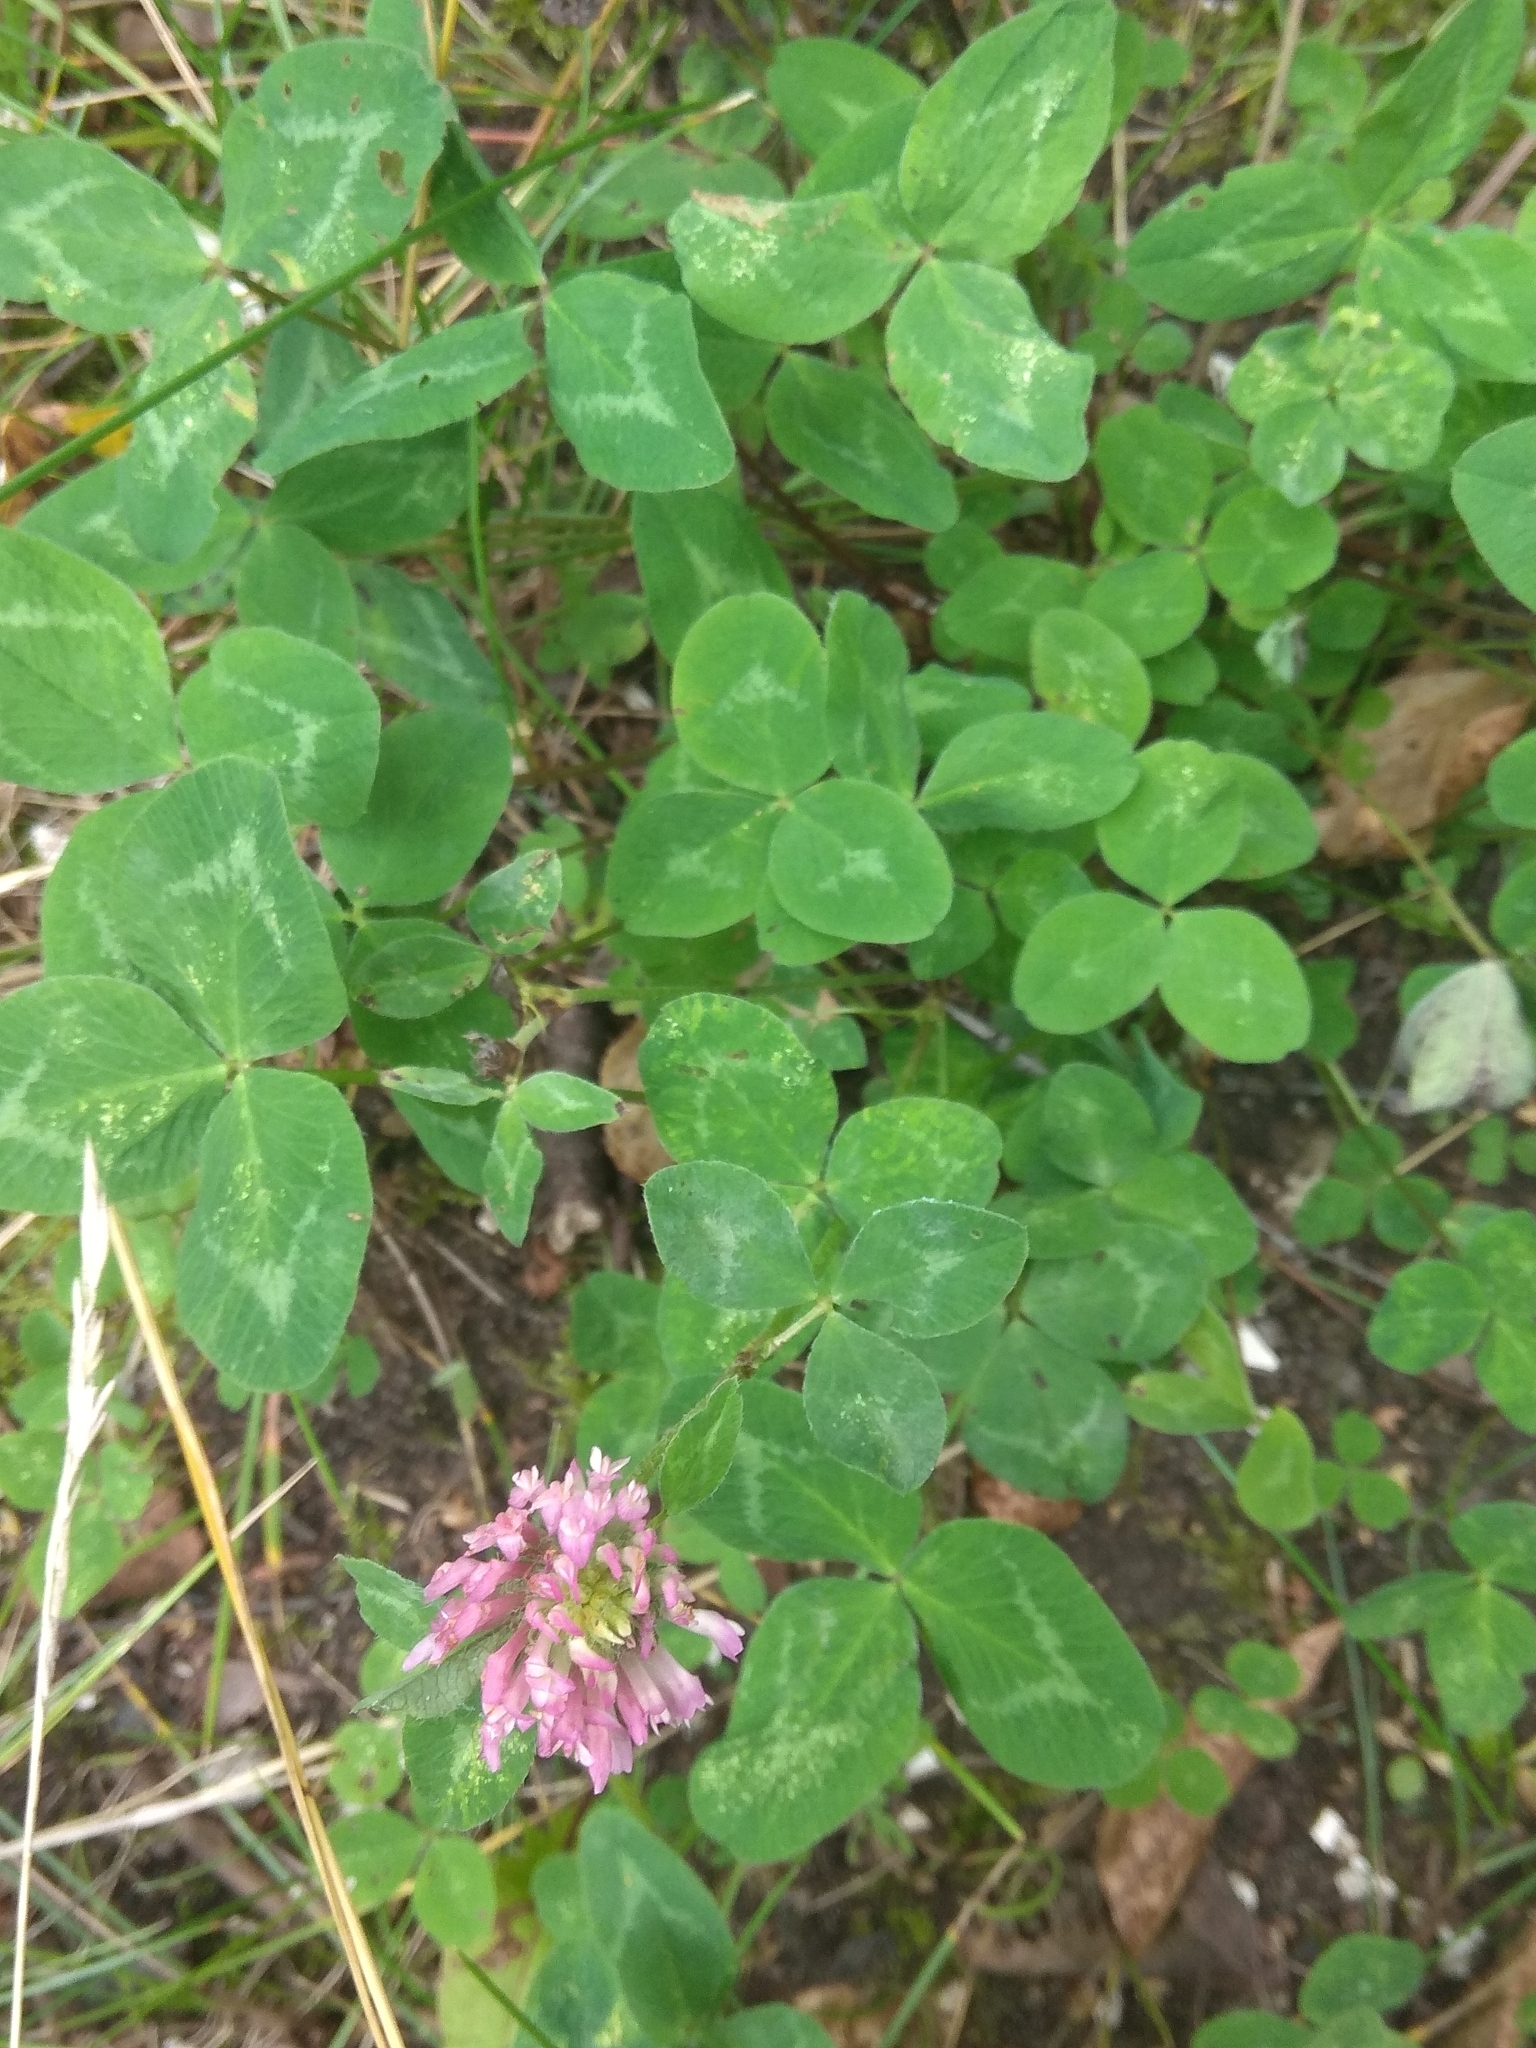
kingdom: Plantae
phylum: Tracheophyta
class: Magnoliopsida
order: Fabales
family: Fabaceae
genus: Trifolium
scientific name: Trifolium pratense
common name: Red clover
